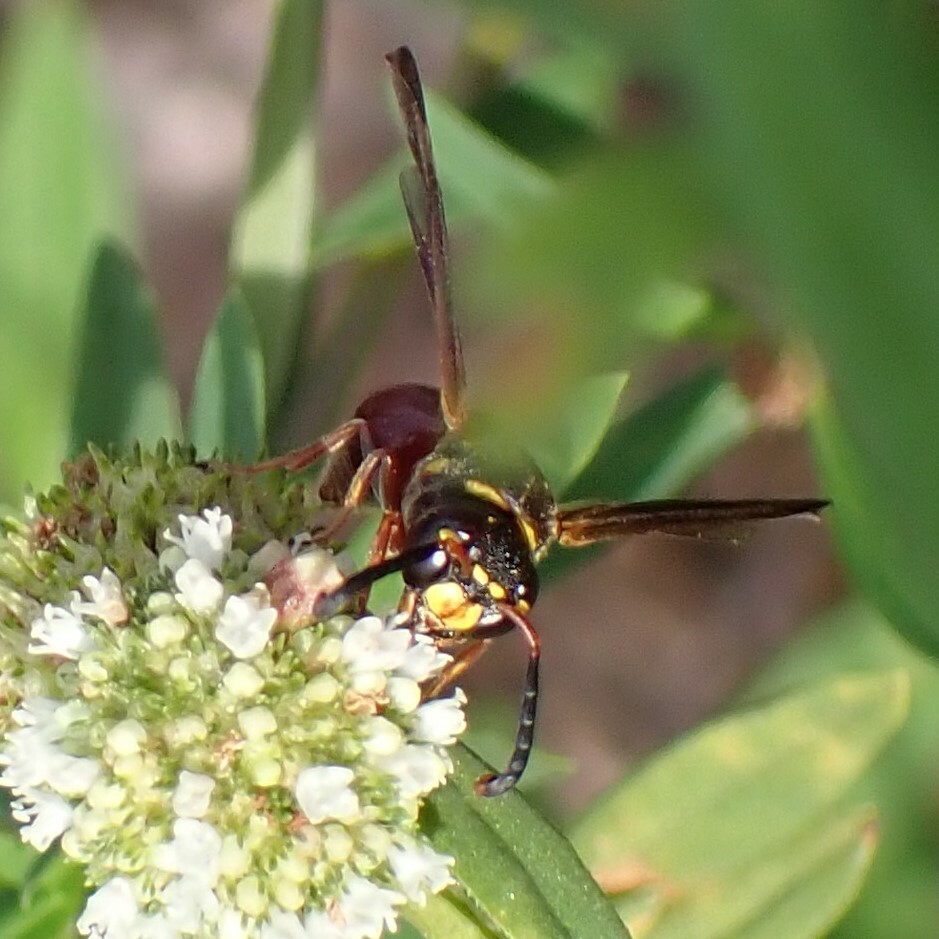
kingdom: Animalia
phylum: Arthropoda
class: Insecta
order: Hymenoptera
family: Eumenidae
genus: Zethus
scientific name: Zethus slossonae
